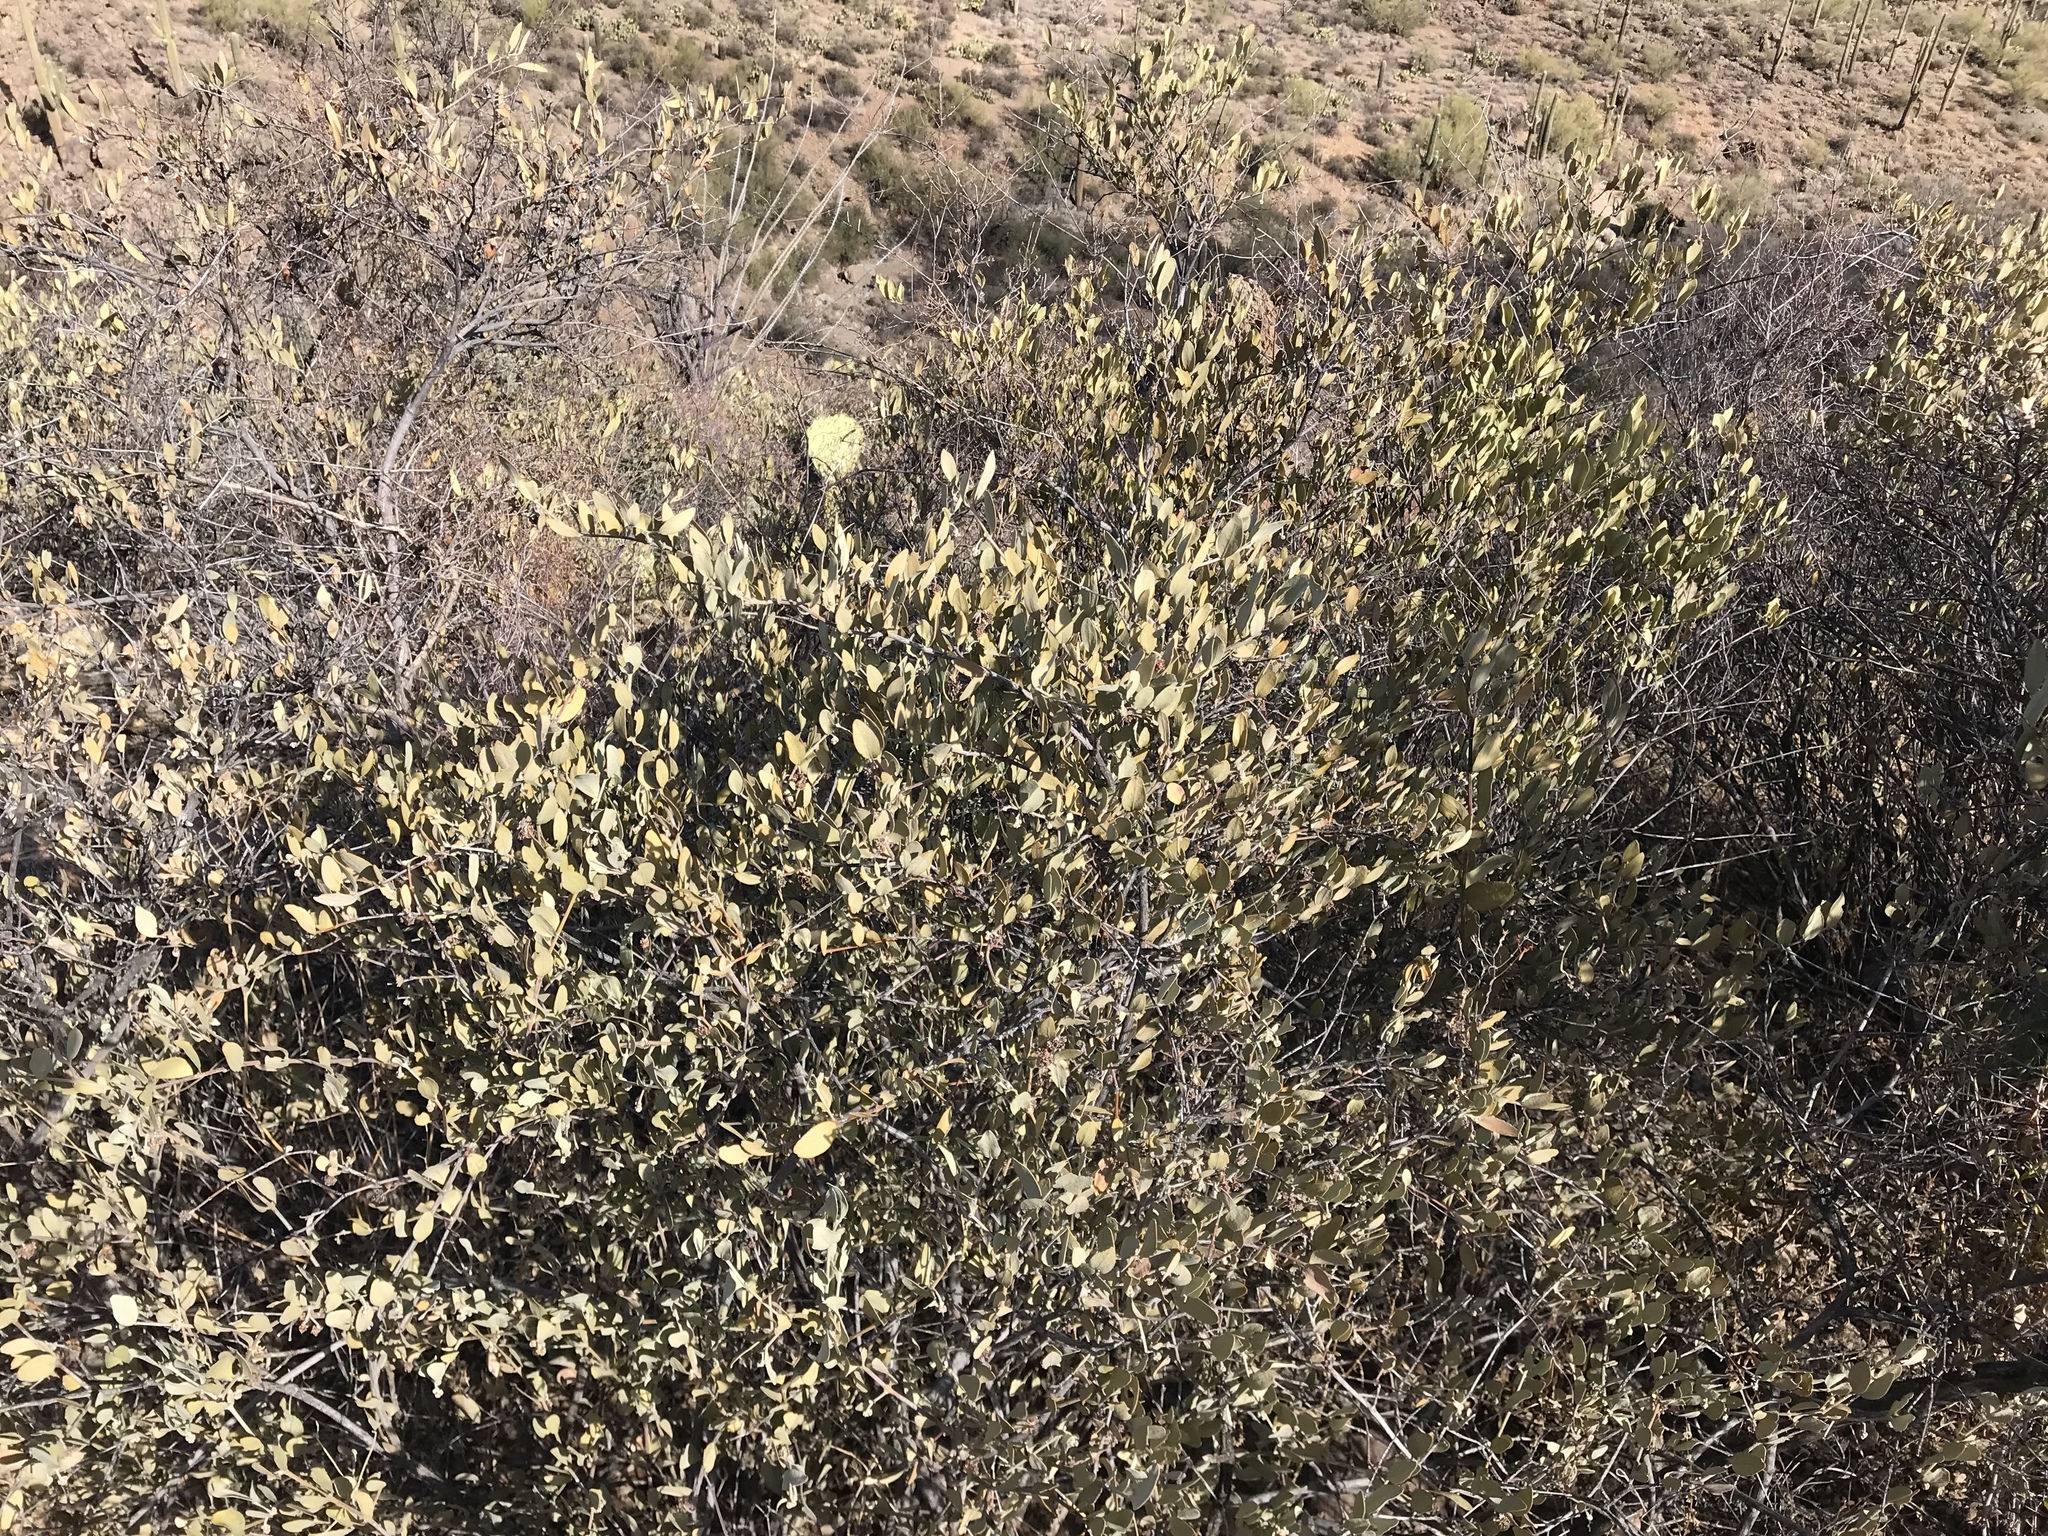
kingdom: Plantae
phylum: Tracheophyta
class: Magnoliopsida
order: Caryophyllales
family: Simmondsiaceae
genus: Simmondsia
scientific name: Simmondsia chinensis
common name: Jojoba
